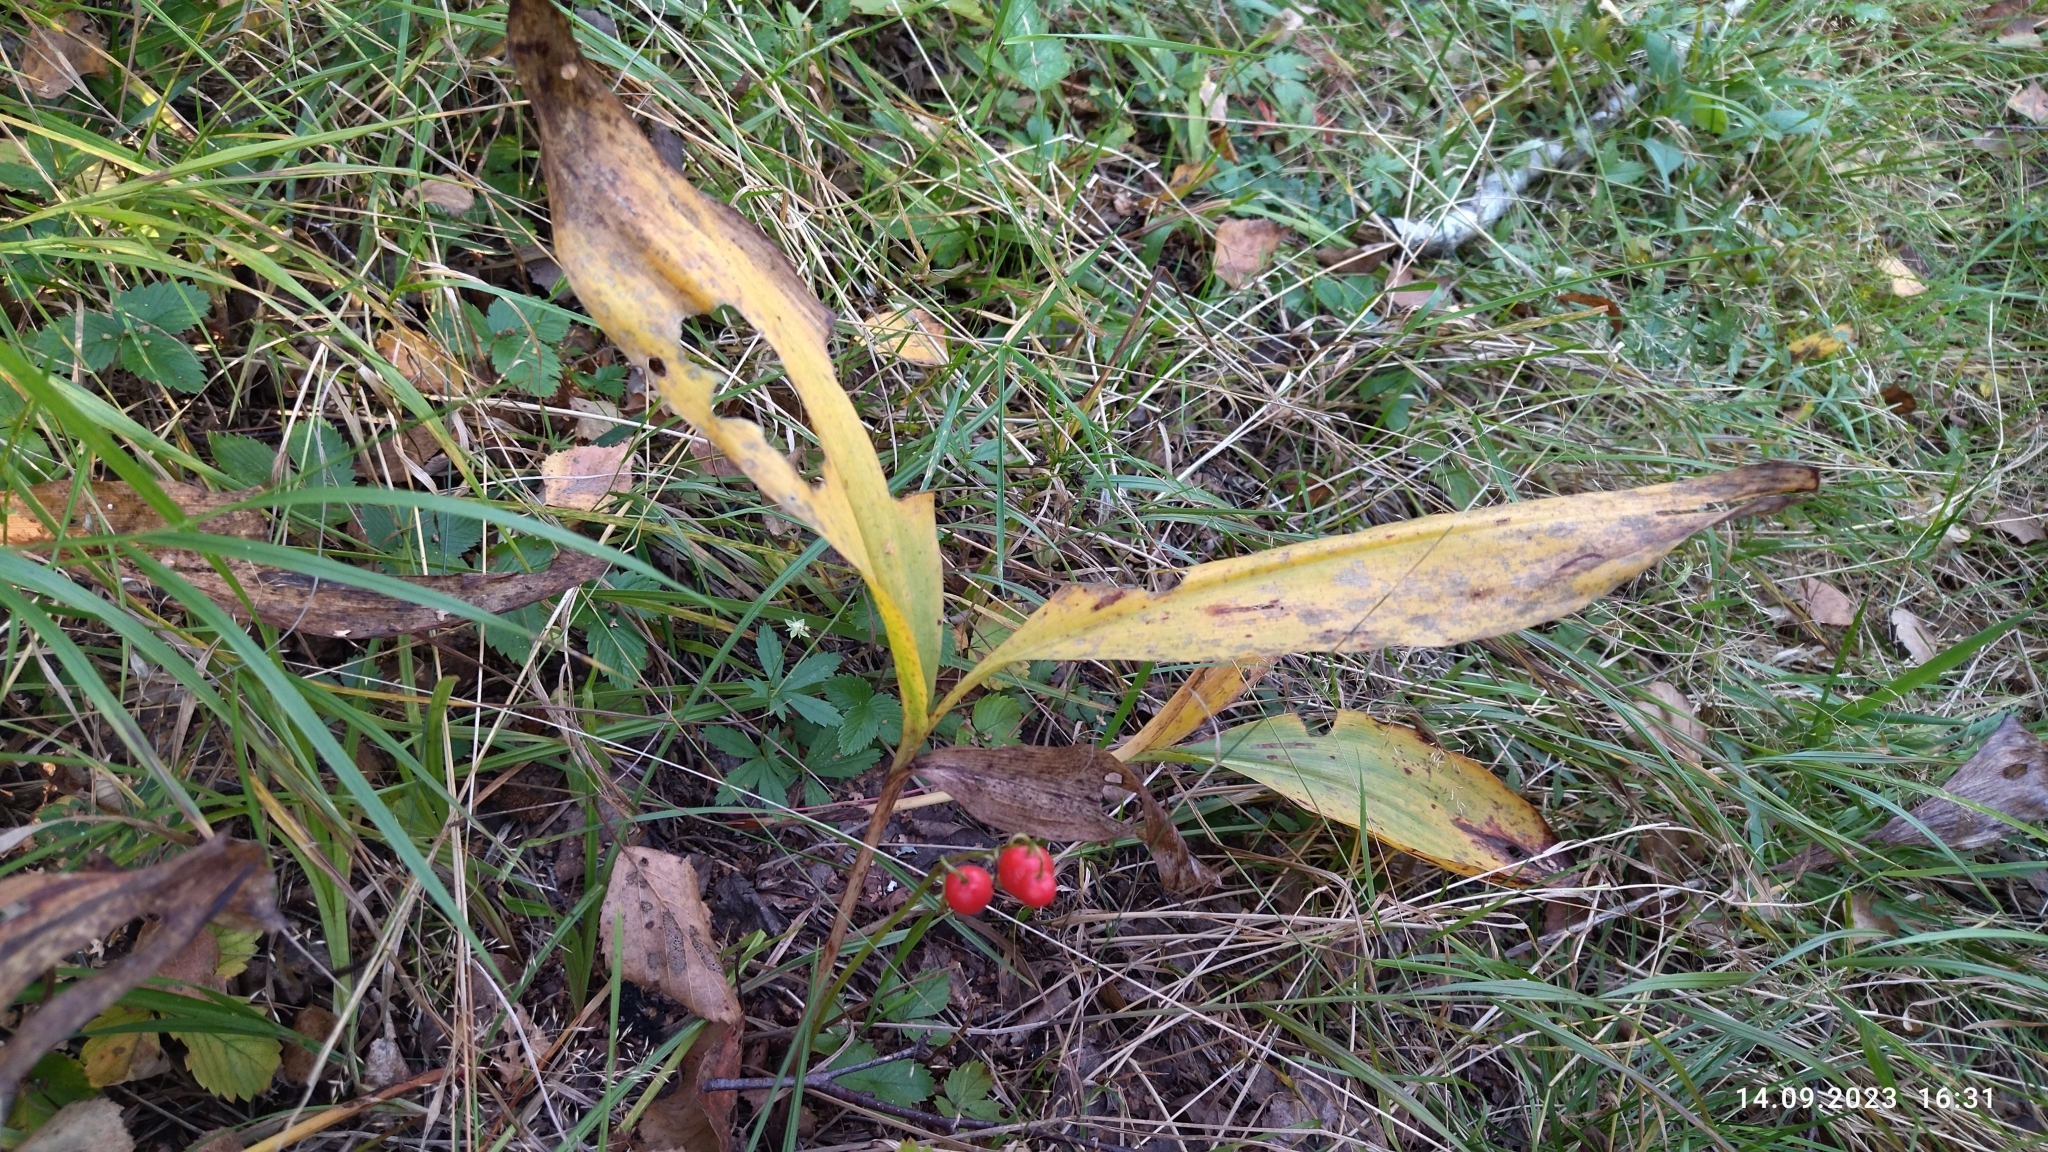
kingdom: Plantae
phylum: Tracheophyta
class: Liliopsida
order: Asparagales
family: Asparagaceae
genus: Convallaria
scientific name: Convallaria majalis
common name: Lily-of-the-valley
